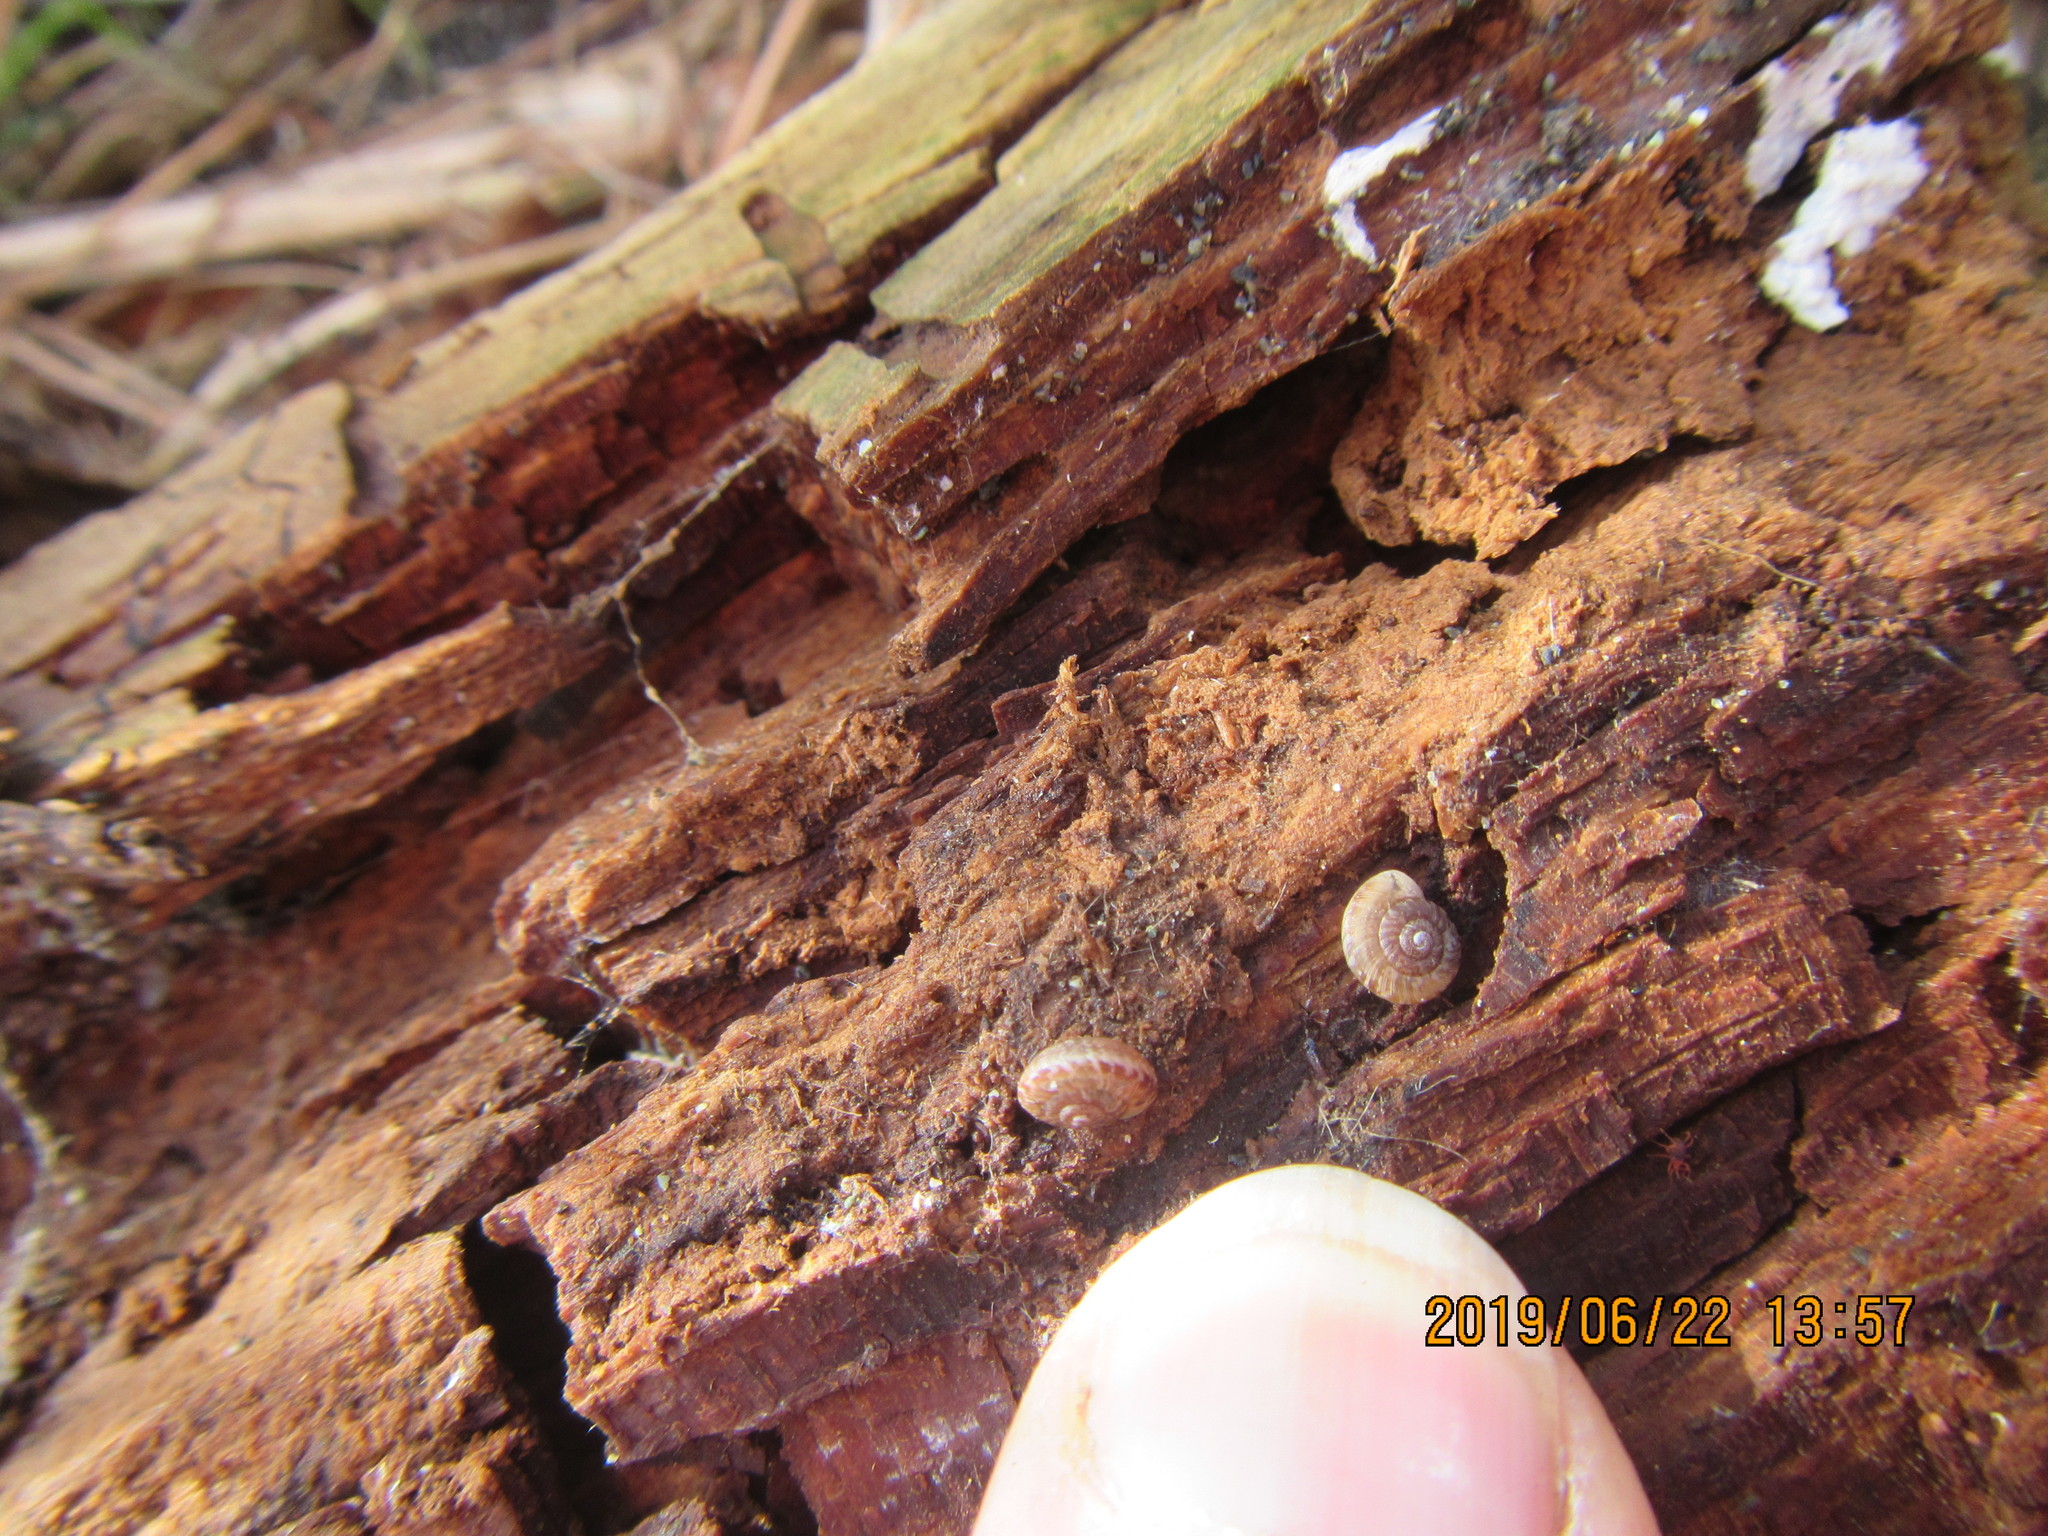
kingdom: Animalia
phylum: Mollusca
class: Gastropoda
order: Stylommatophora
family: Geomitridae
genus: Xeroplexa
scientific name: Xeroplexa intersecta
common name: Wrinkled snail
